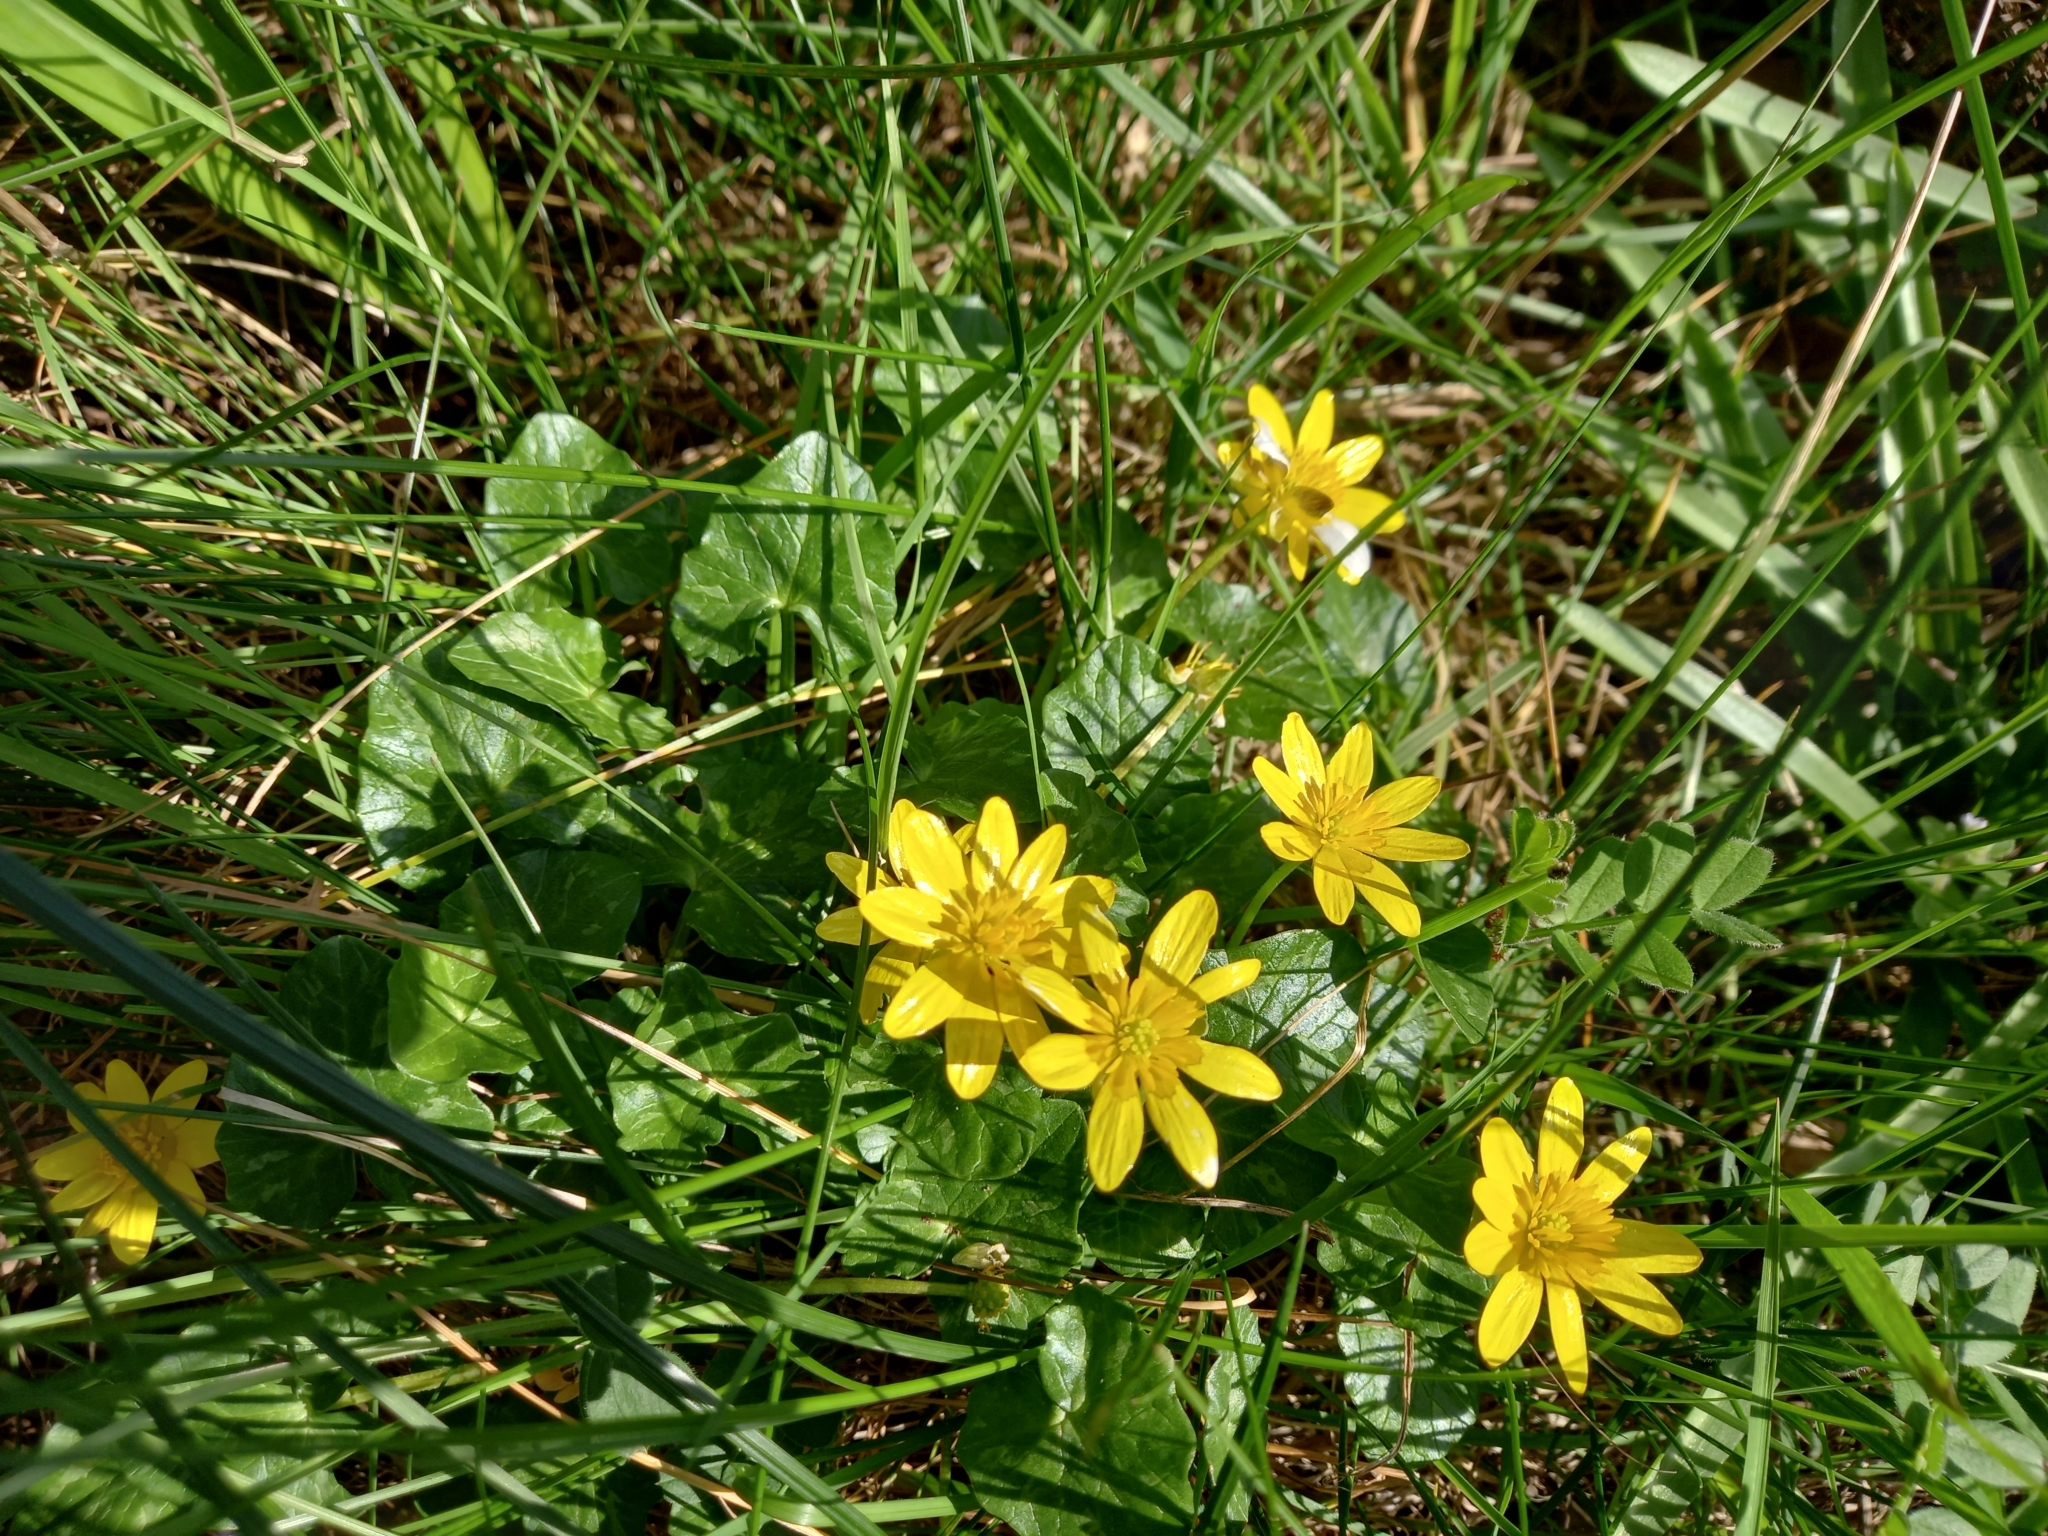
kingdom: Plantae
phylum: Tracheophyta
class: Magnoliopsida
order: Ranunculales
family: Ranunculaceae
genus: Ficaria
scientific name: Ficaria verna
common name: Lesser celandine
